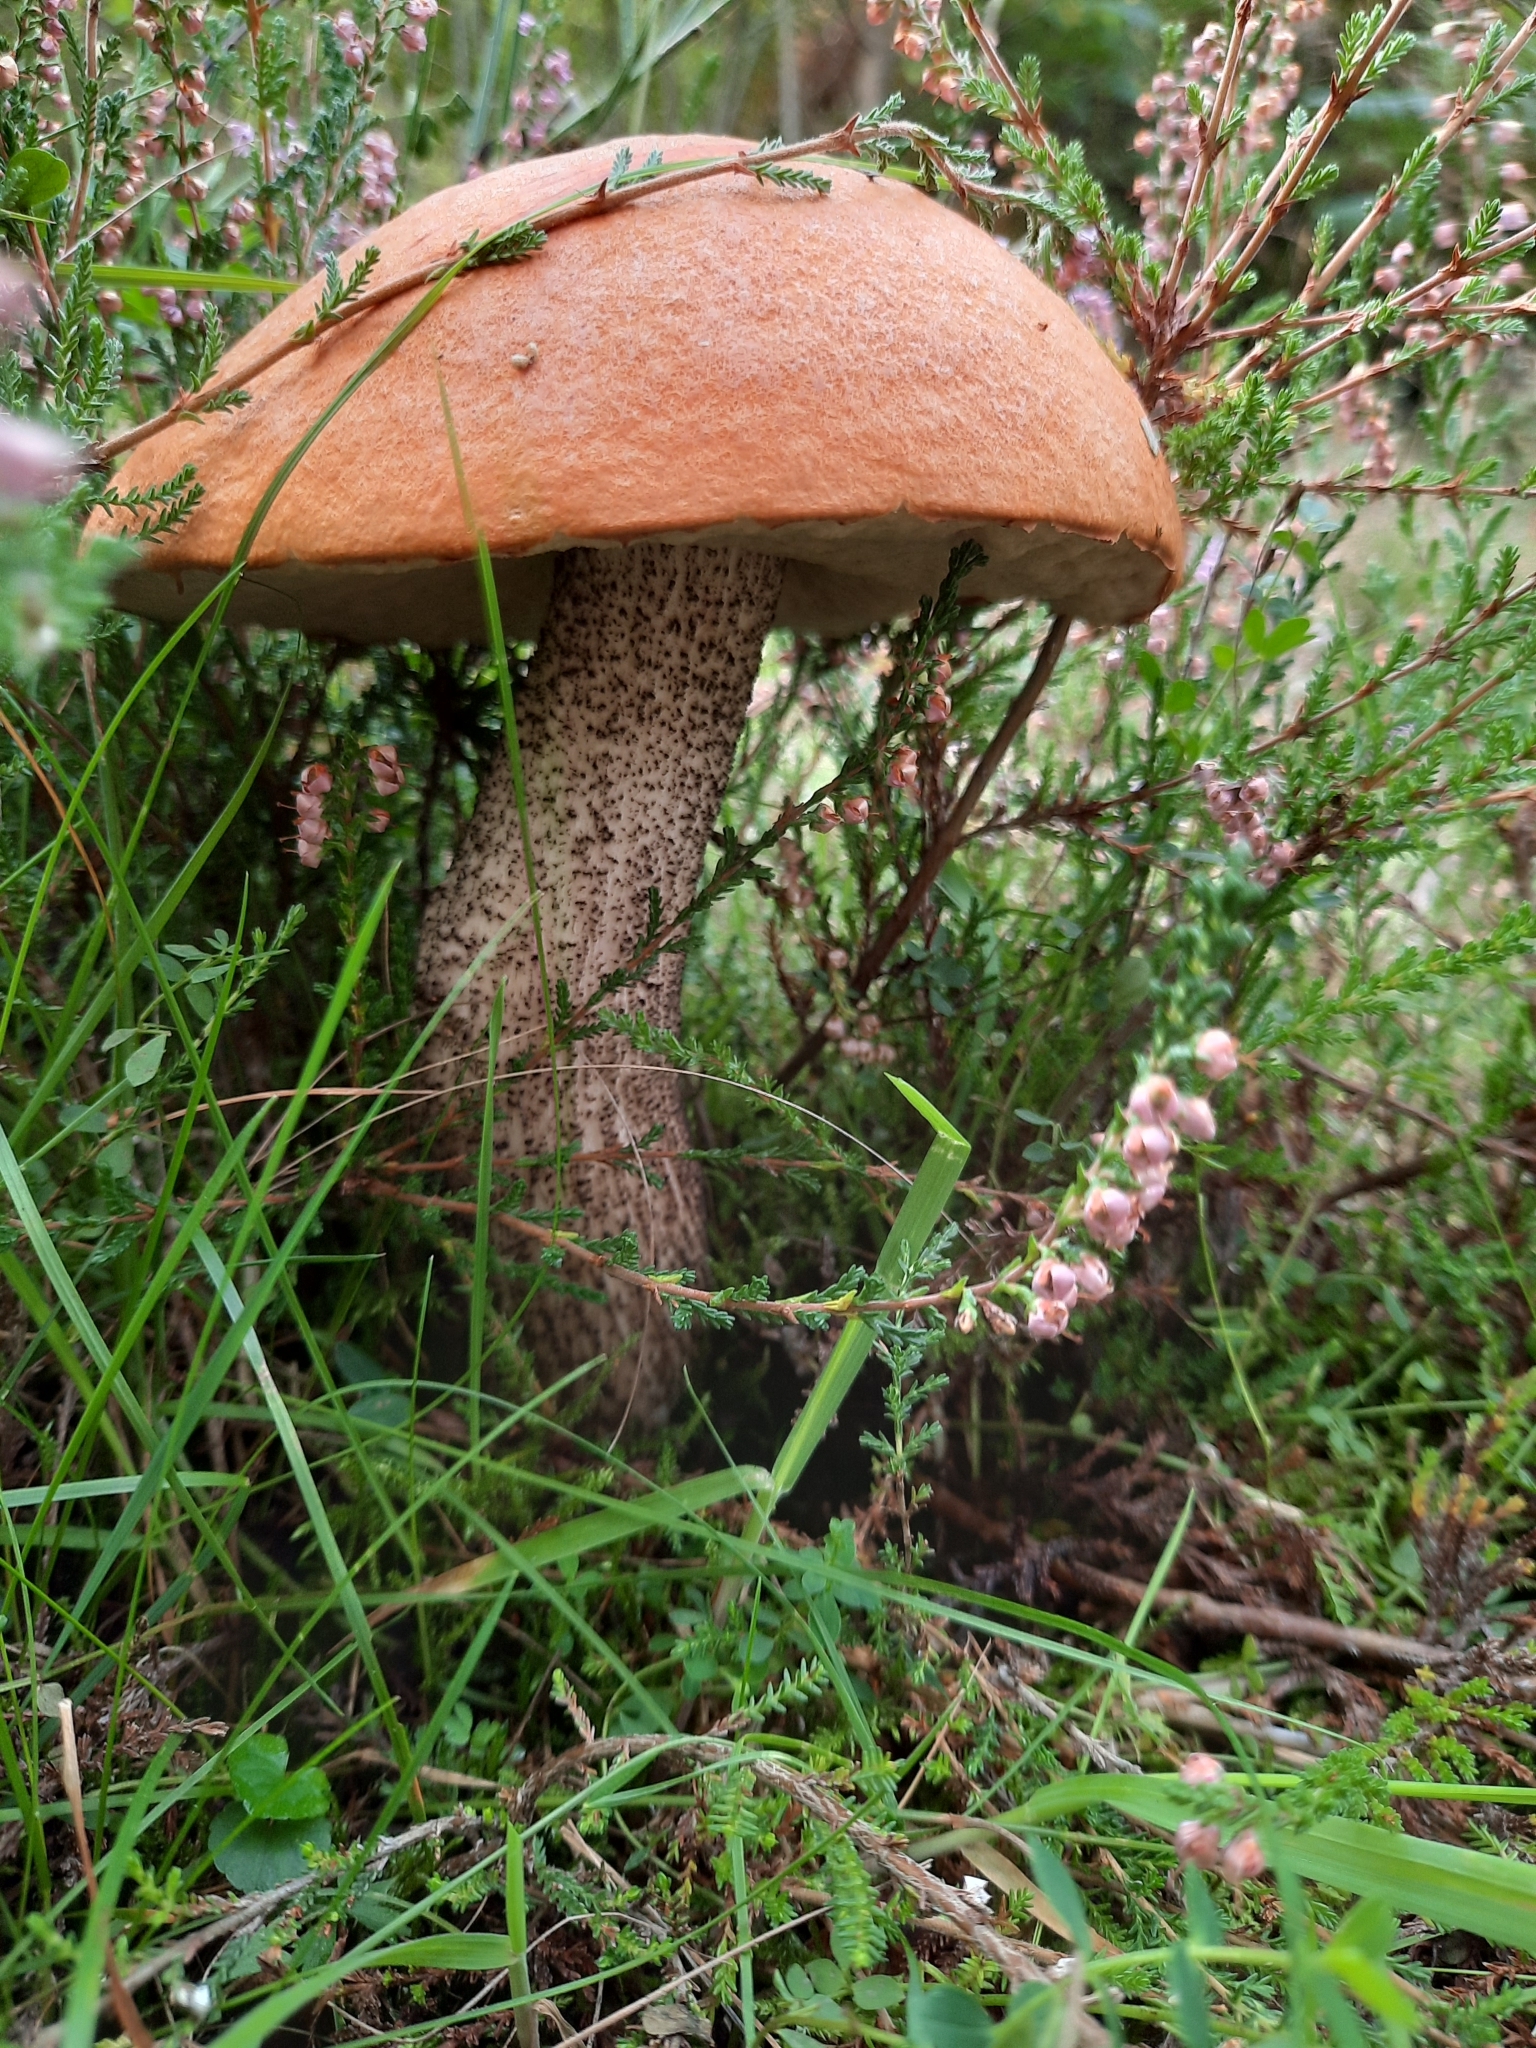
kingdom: Fungi
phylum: Basidiomycota
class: Agaricomycetes
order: Boletales
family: Boletaceae
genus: Leccinum
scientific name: Leccinum versipelle
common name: Orange birch bolete
